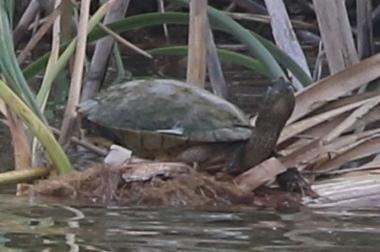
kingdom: Animalia
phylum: Chordata
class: Testudines
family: Emydidae
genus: Trachemys
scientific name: Trachemys scripta
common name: Slider
